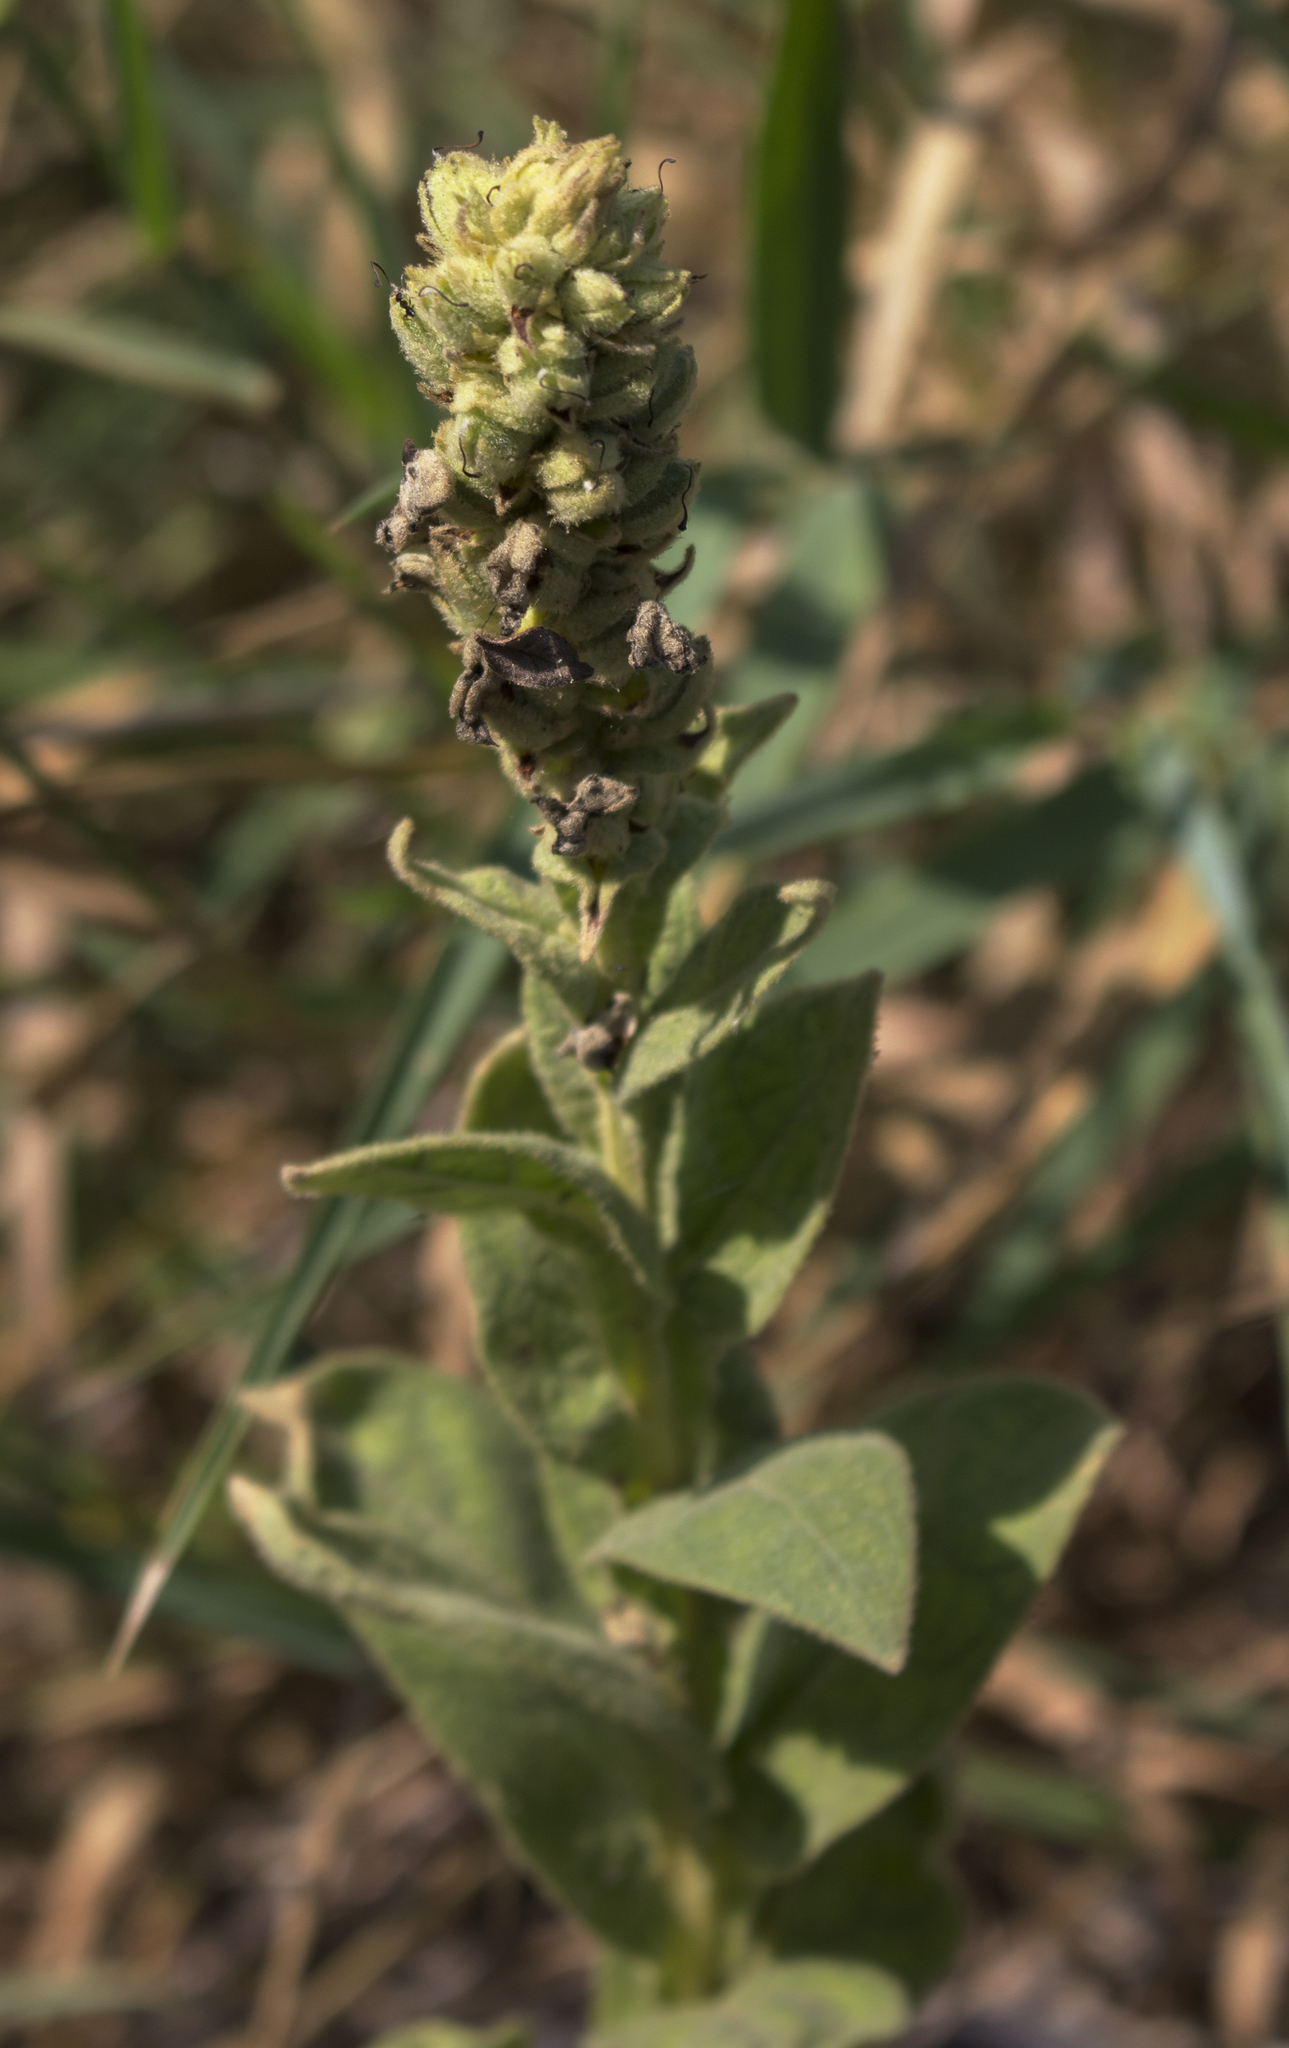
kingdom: Plantae
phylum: Tracheophyta
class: Magnoliopsida
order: Lamiales
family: Scrophulariaceae
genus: Verbascum
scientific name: Verbascum thapsus
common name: Common mullein
